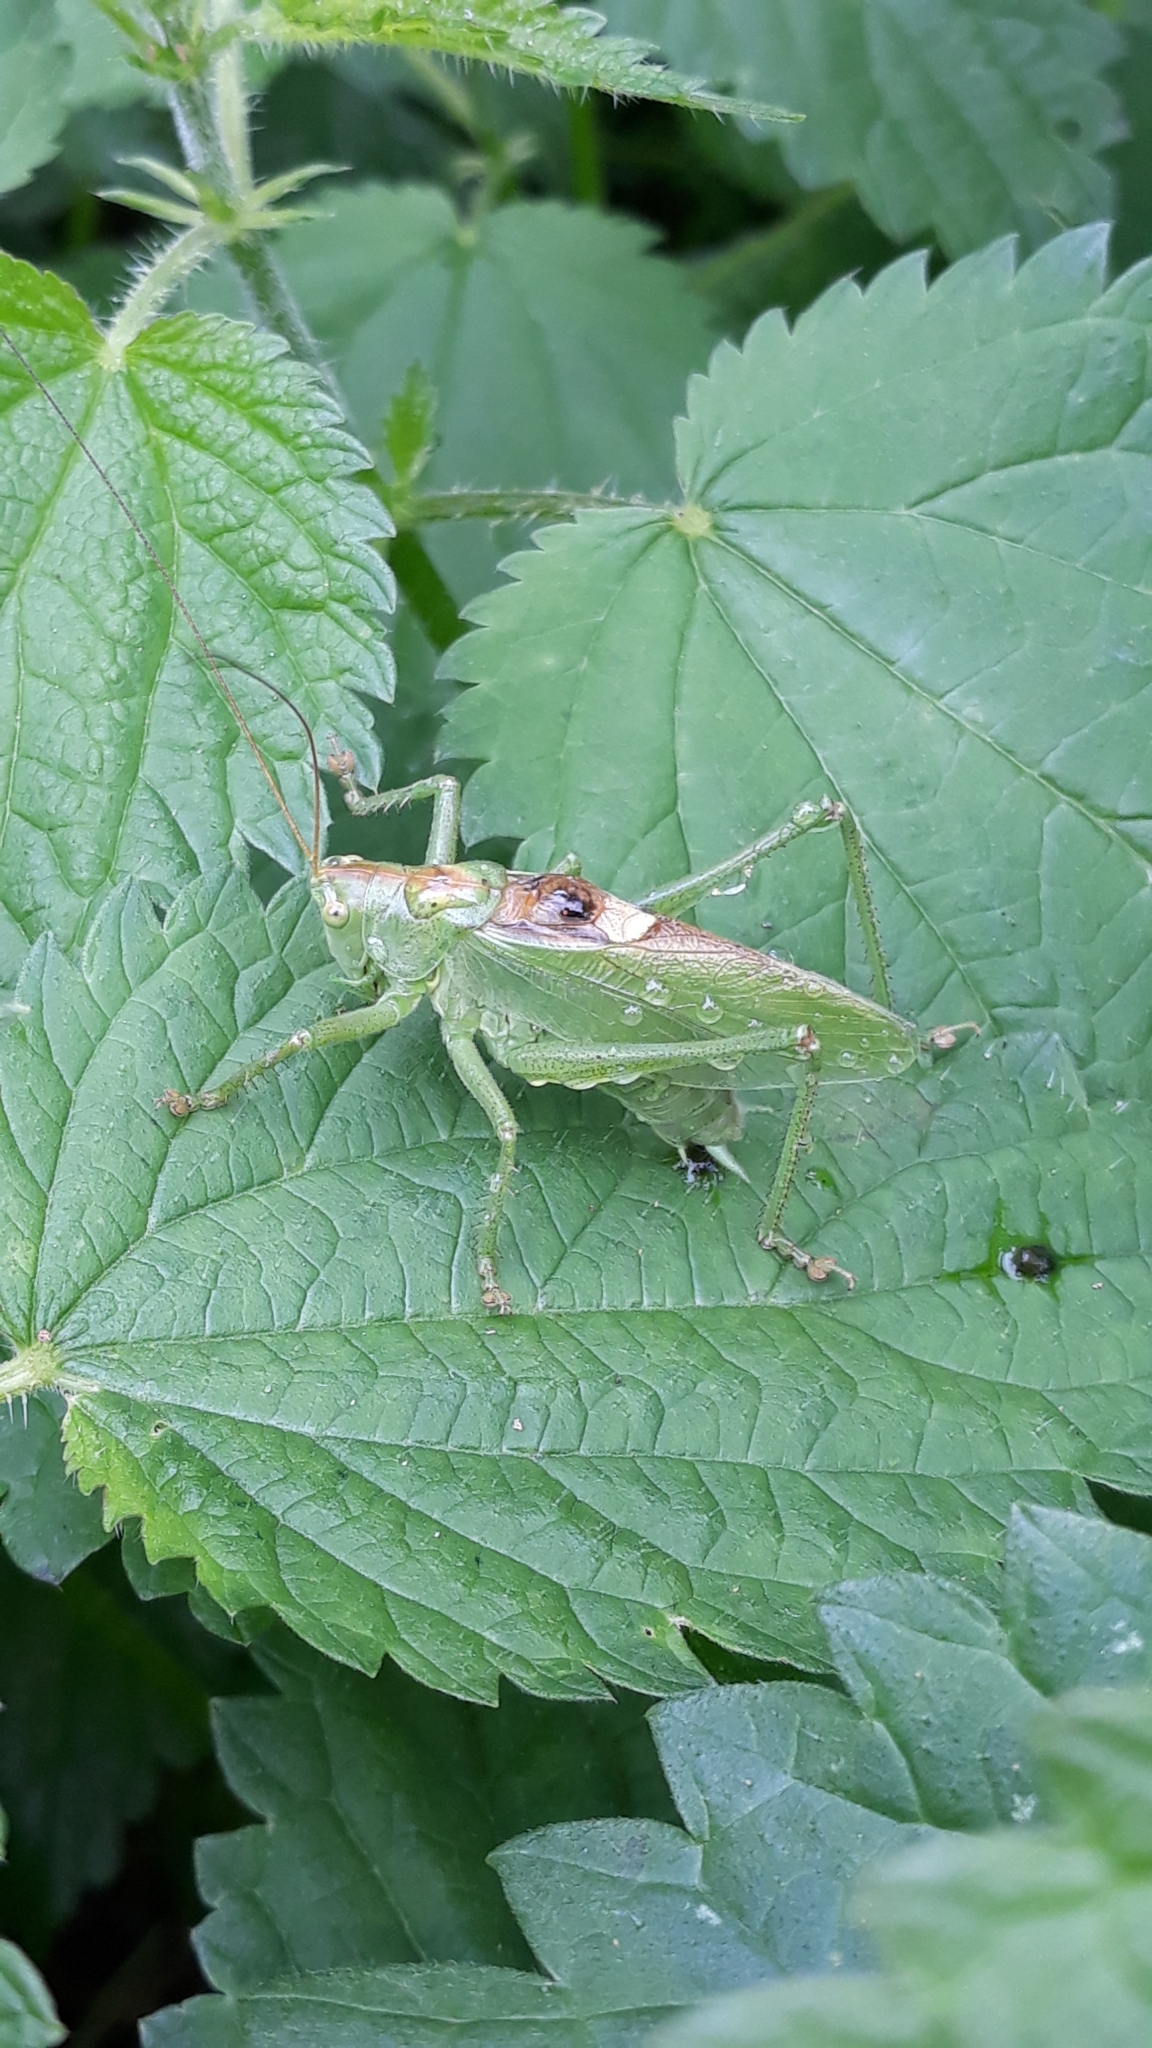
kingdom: Animalia
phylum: Arthropoda
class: Insecta
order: Orthoptera
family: Tettigoniidae
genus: Tettigonia
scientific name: Tettigonia cantans
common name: Upland green bush-cricket
